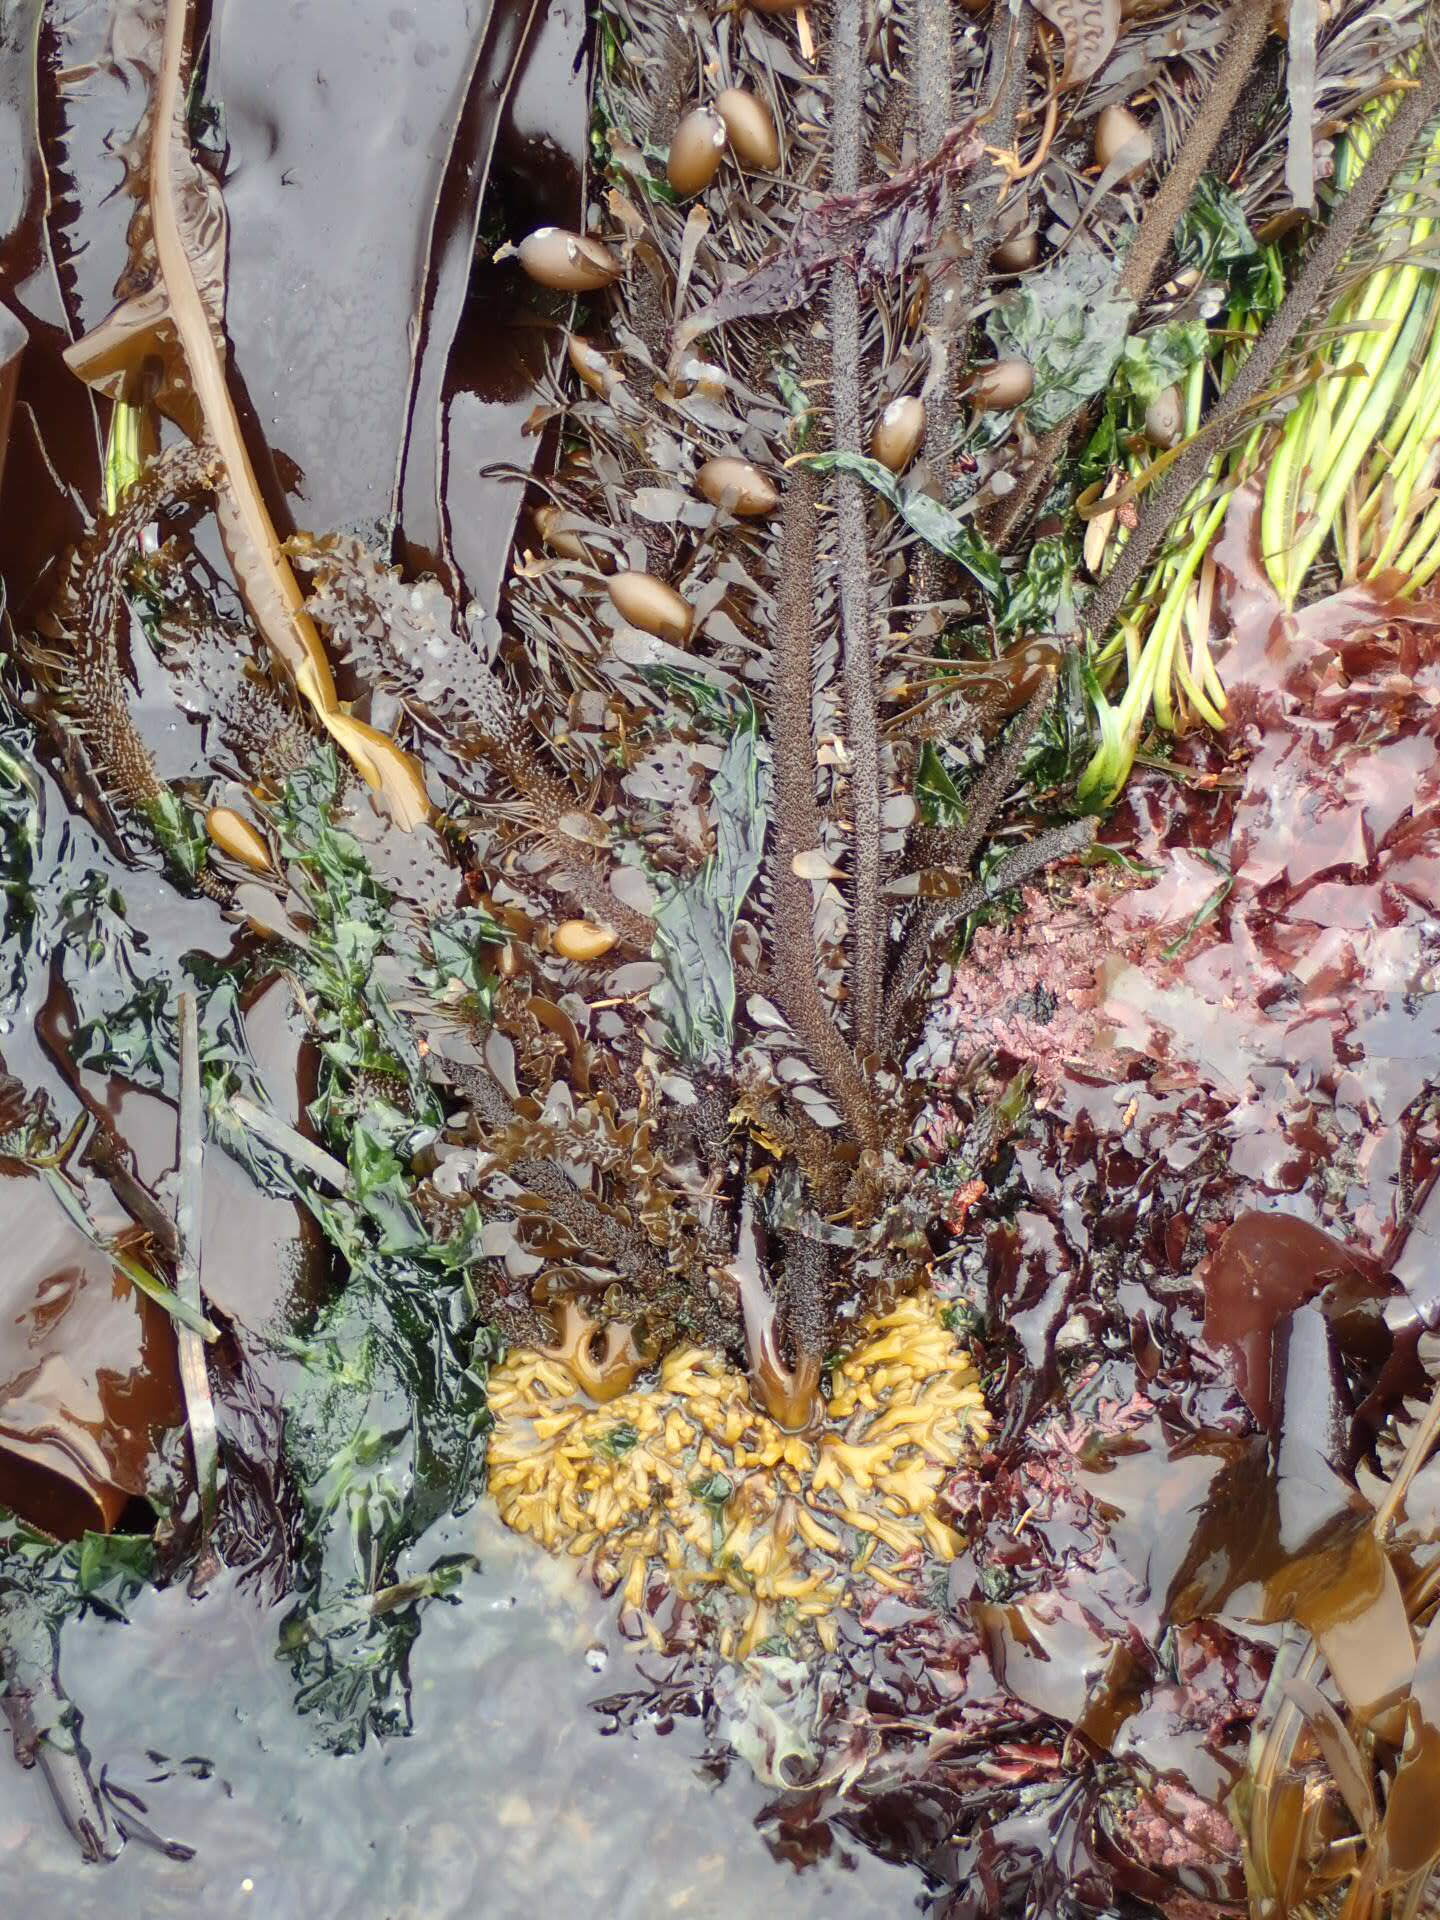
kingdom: Chromista
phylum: Ochrophyta
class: Phaeophyceae
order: Laminariales
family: Lessoniaceae
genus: Egregia
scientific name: Egregia menziesii
